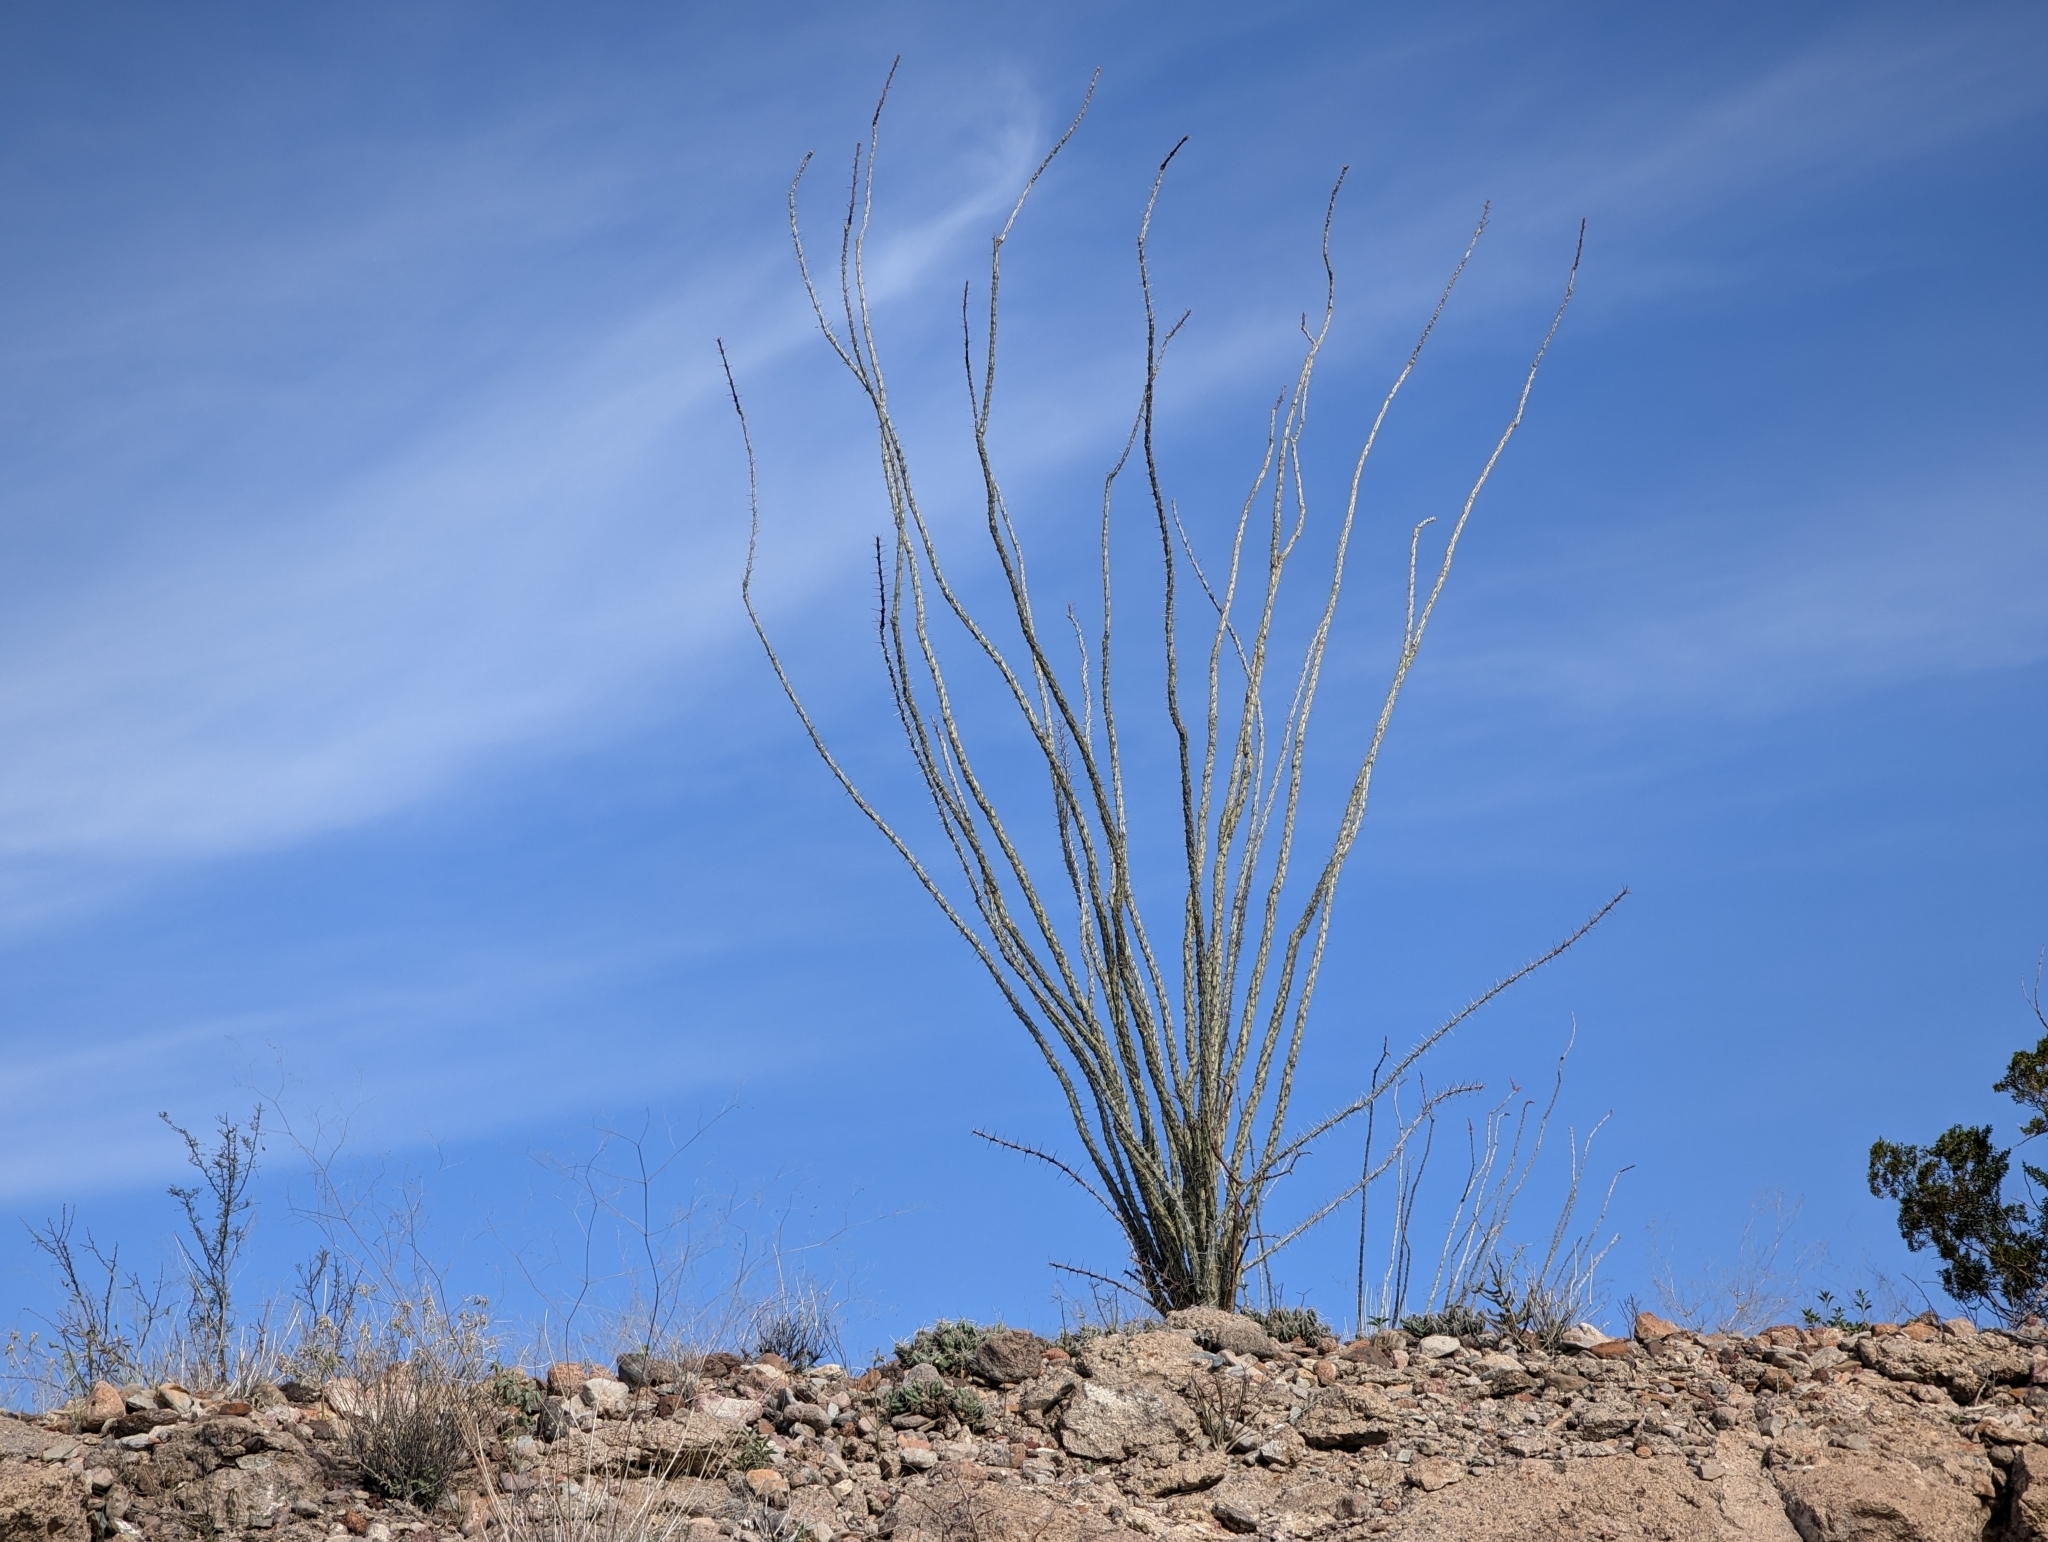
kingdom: Plantae
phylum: Tracheophyta
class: Magnoliopsida
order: Ericales
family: Fouquieriaceae
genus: Fouquieria
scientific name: Fouquieria splendens
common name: Vine-cactus
